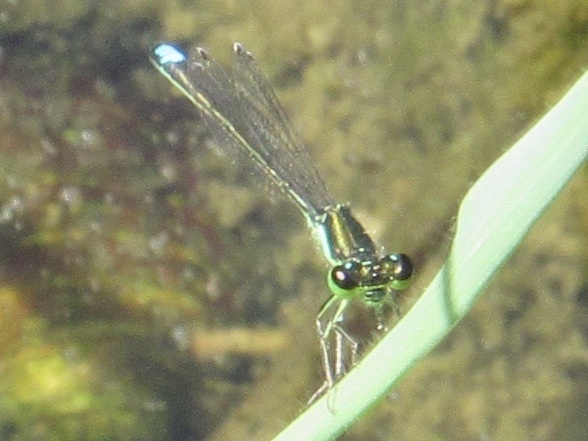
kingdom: Animalia
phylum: Arthropoda
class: Insecta
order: Odonata
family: Coenagrionidae
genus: Ischnura
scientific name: Ischnura denticollis
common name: Black-fronted forktail
